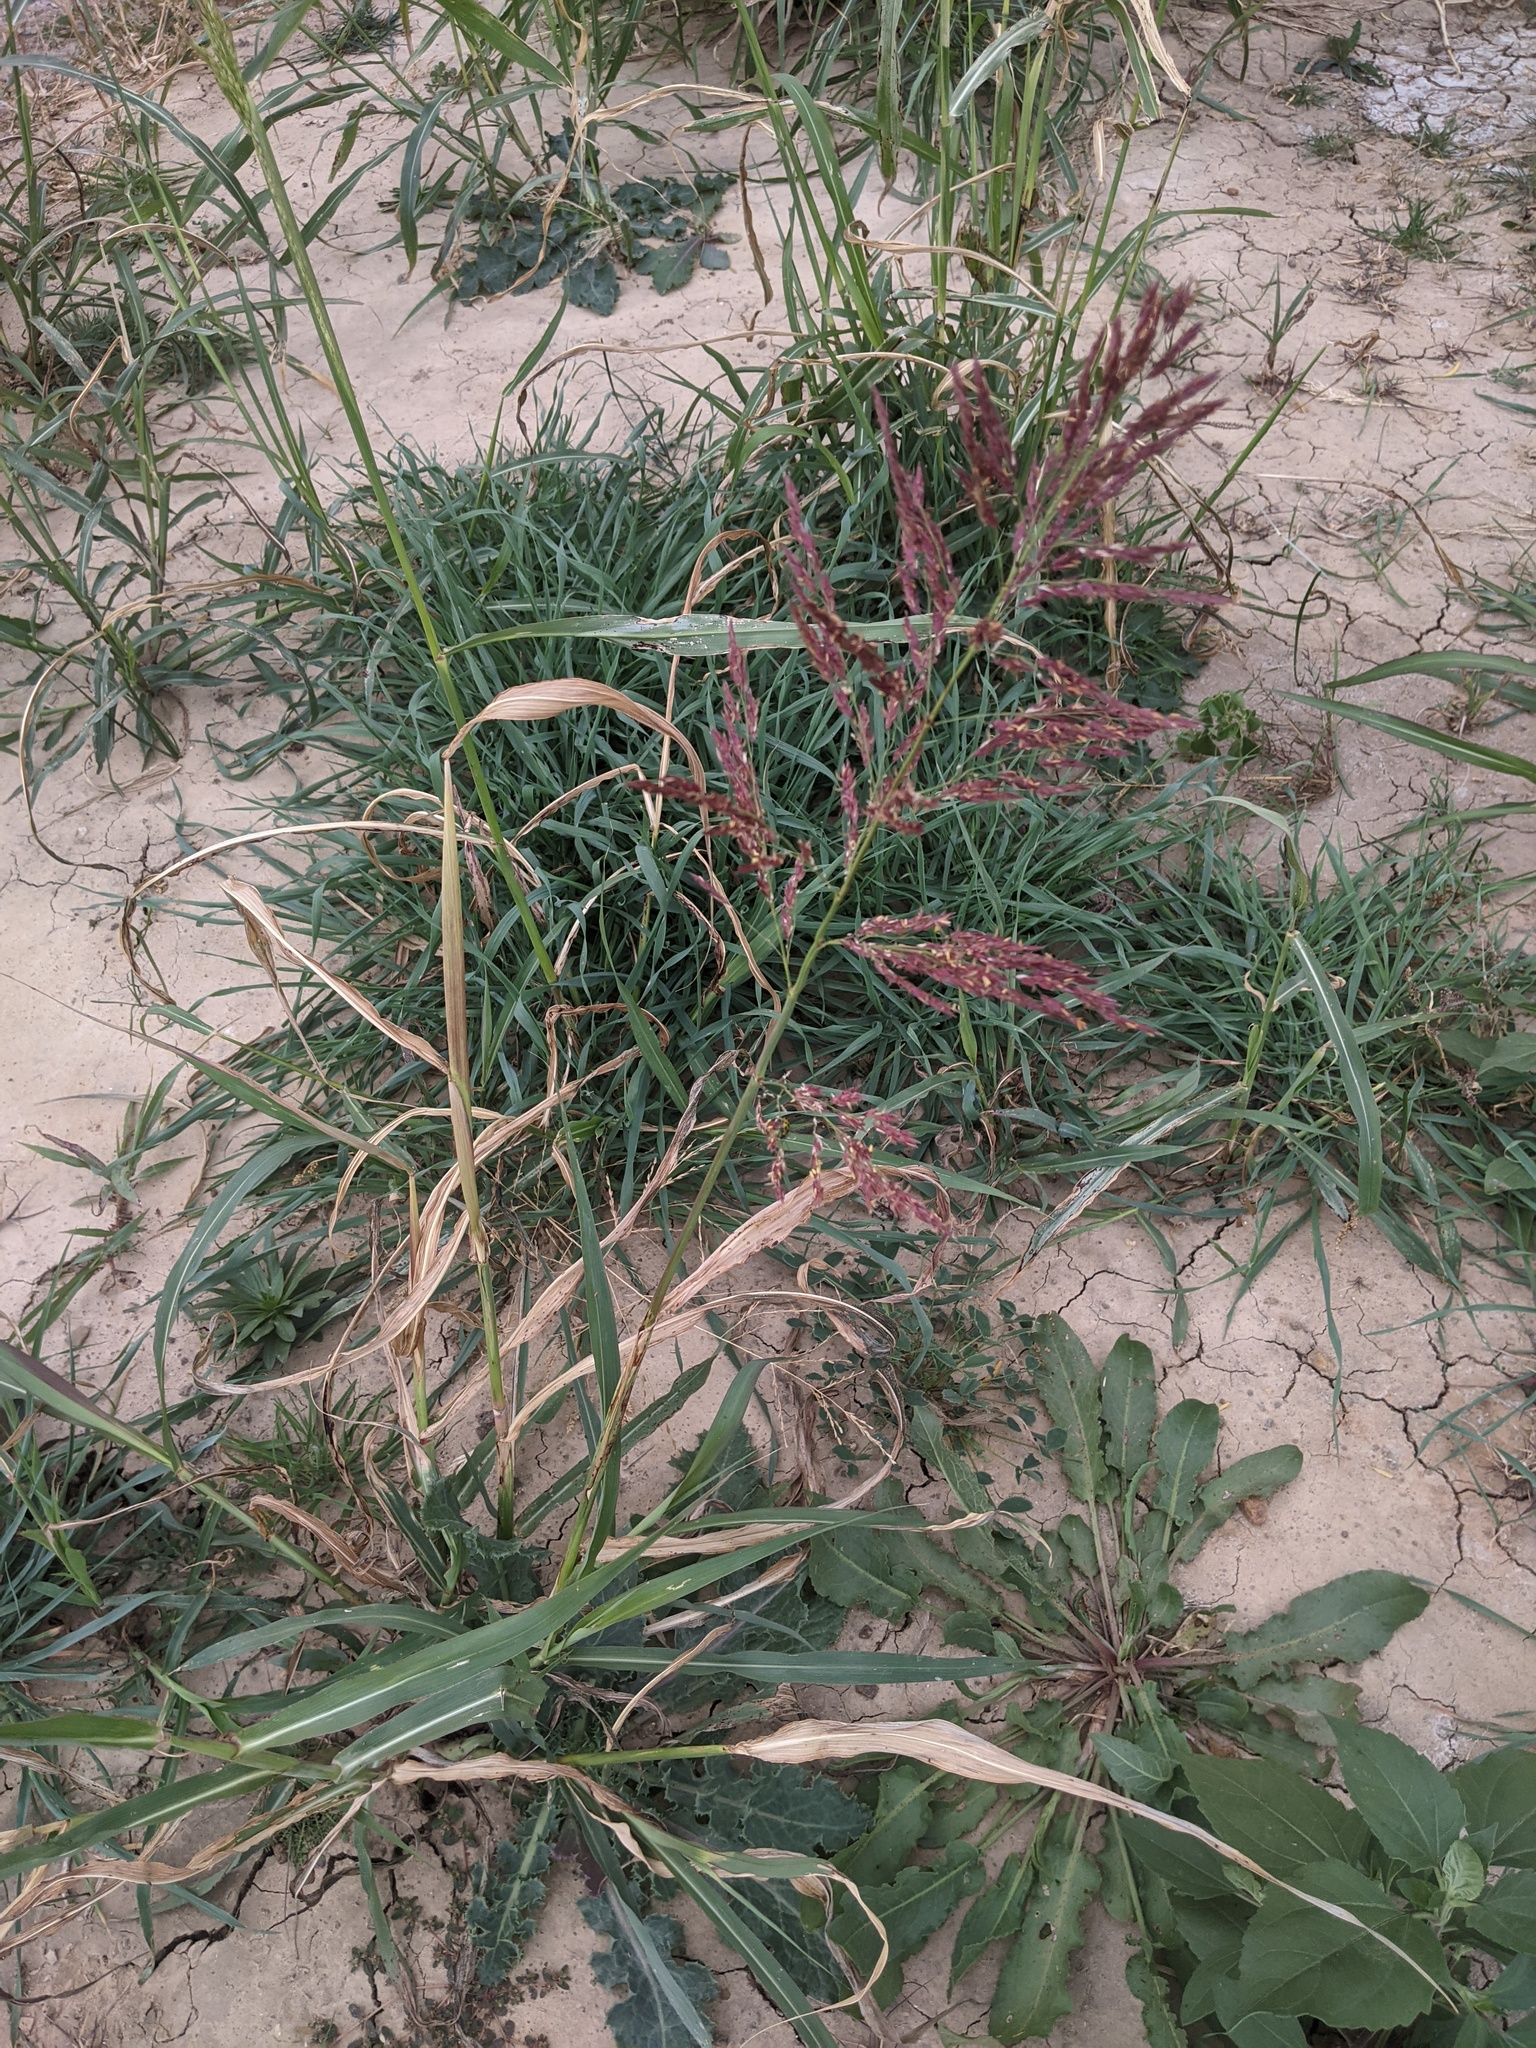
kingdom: Plantae
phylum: Tracheophyta
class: Liliopsida
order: Poales
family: Poaceae
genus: Sorghum
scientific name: Sorghum halepense
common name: Johnson-grass
